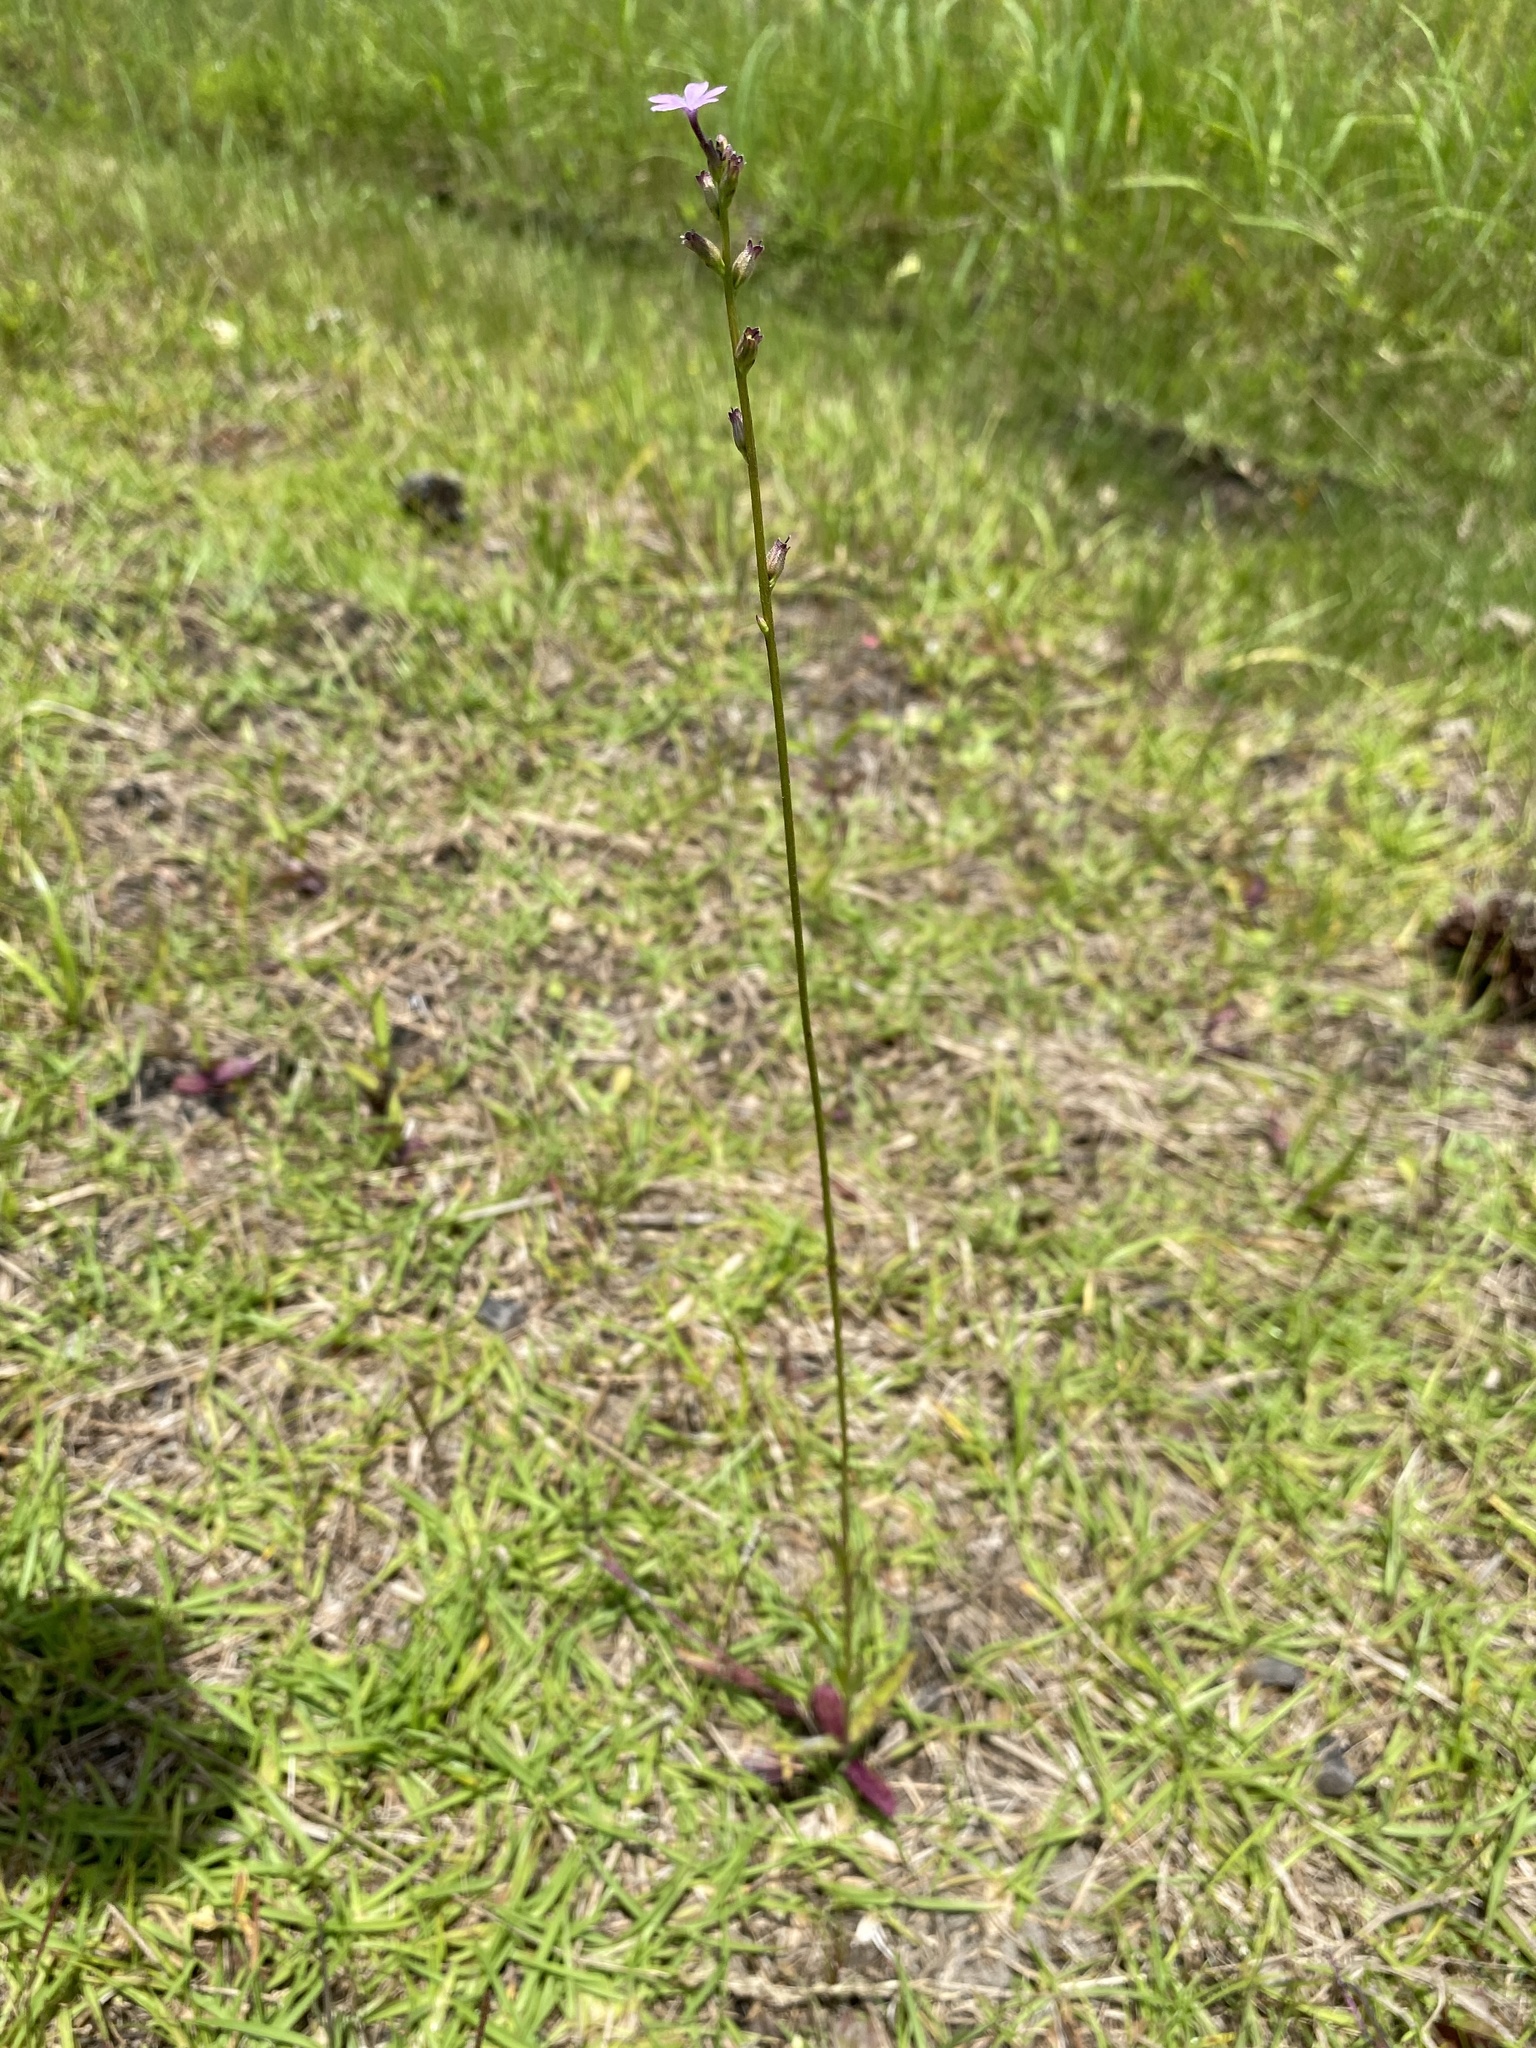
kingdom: Plantae
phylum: Tracheophyta
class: Magnoliopsida
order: Lamiales
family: Orobanchaceae
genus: Buchnera
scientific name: Buchnera floridana
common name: Florida bluehearts
